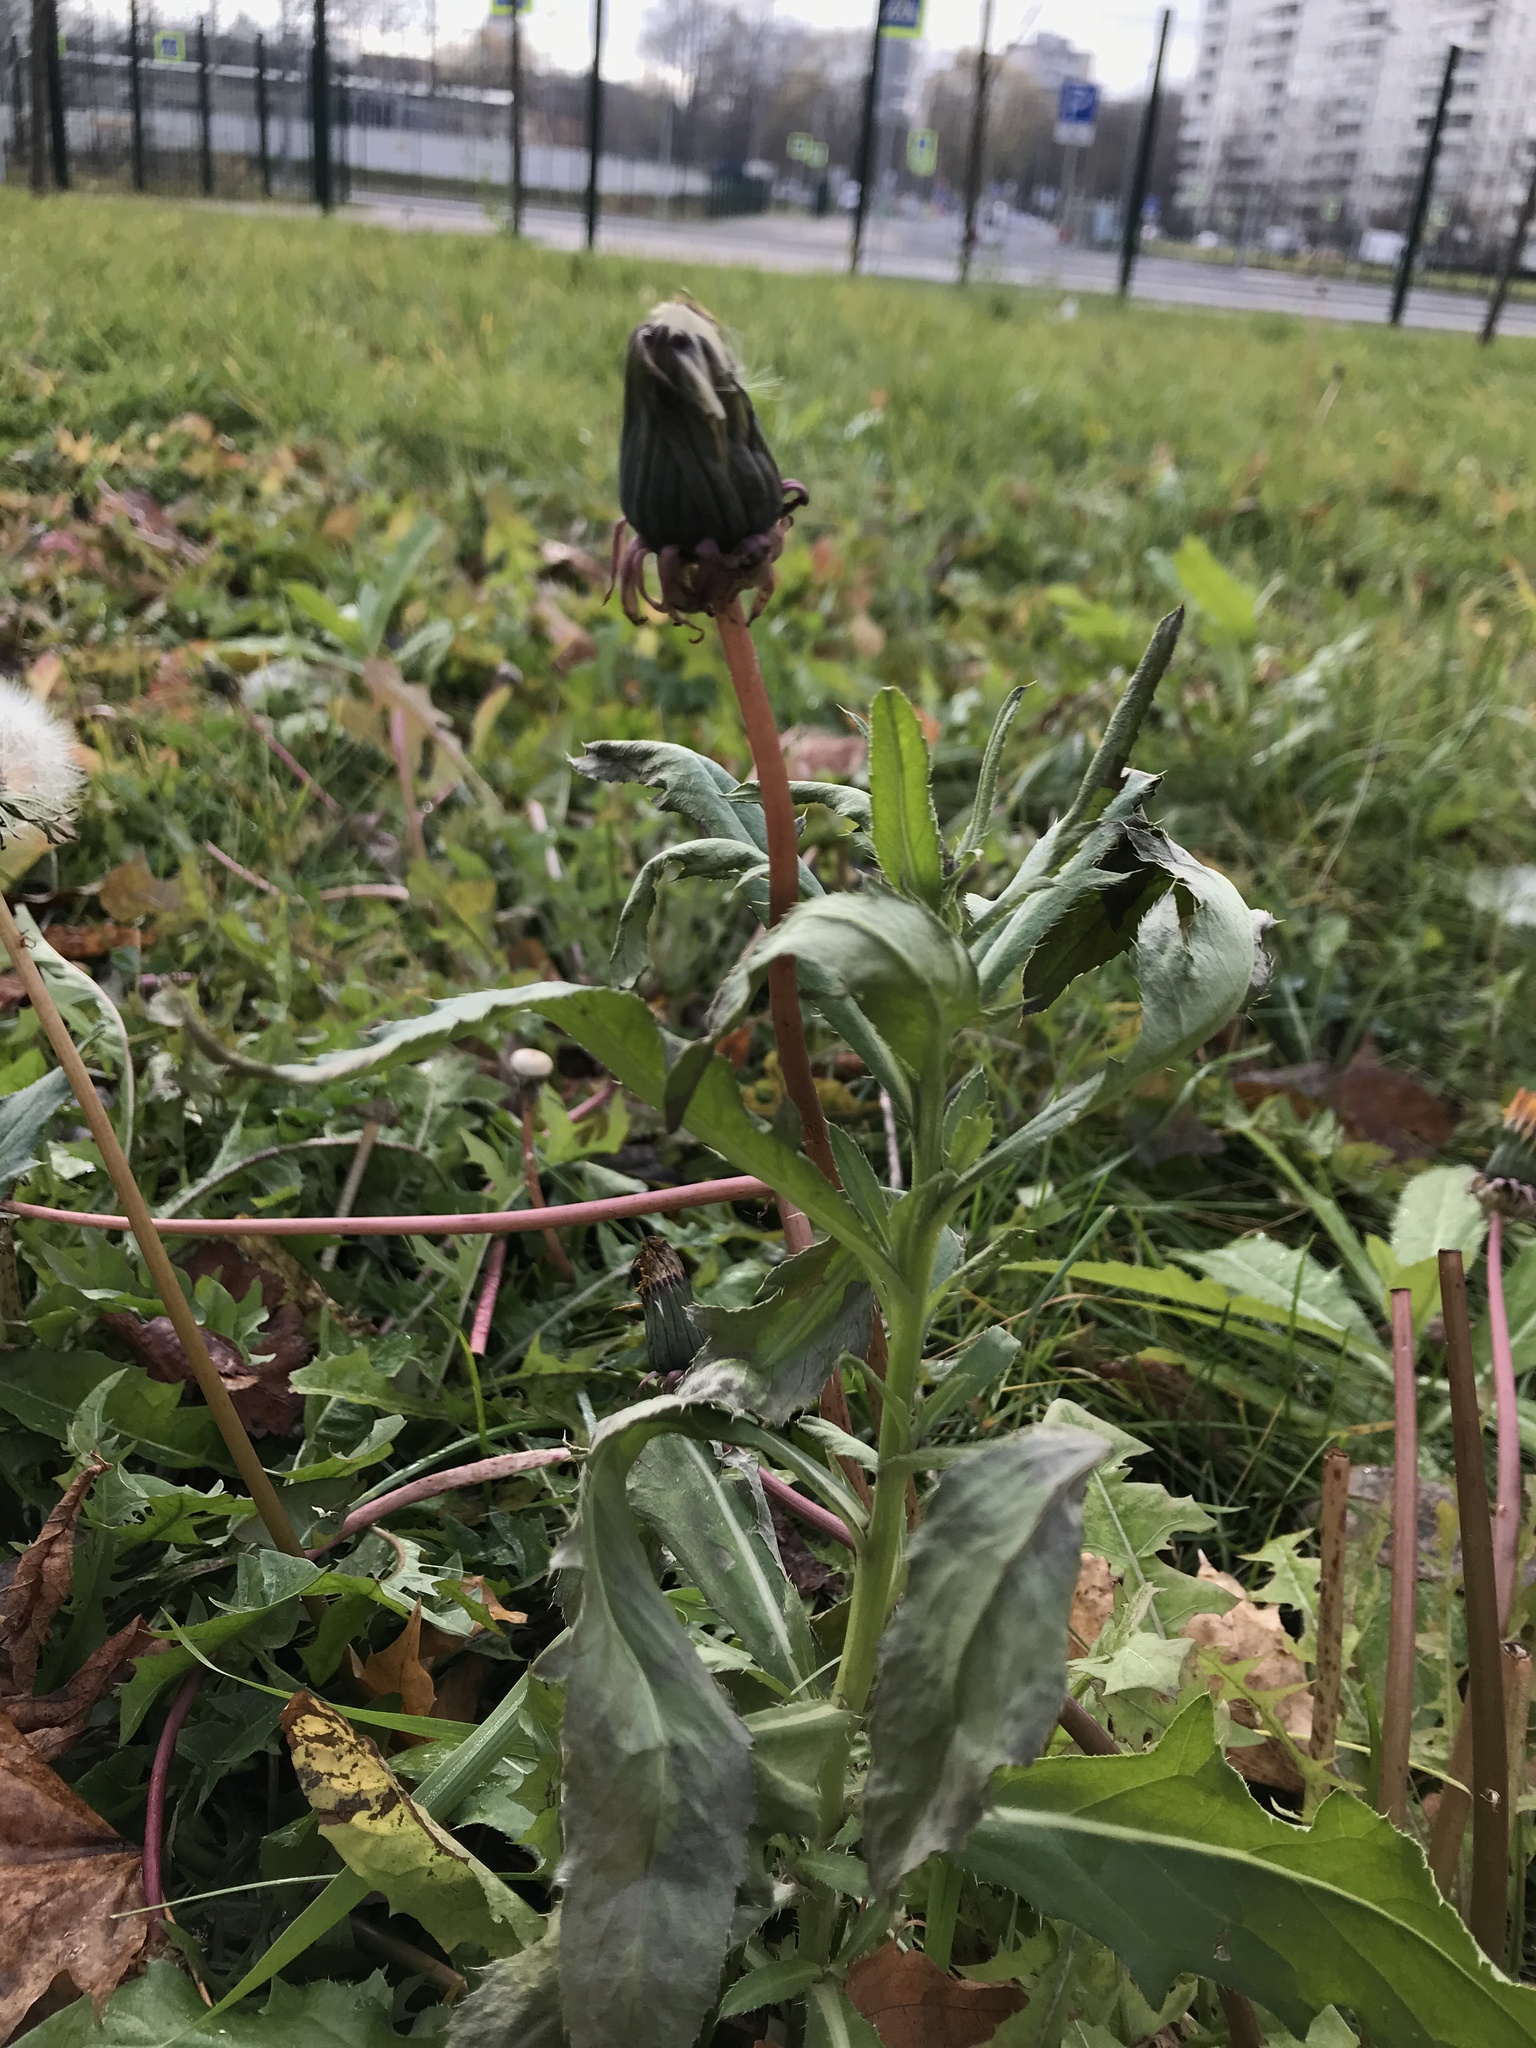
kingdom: Plantae
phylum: Tracheophyta
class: Magnoliopsida
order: Asterales
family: Asteraceae
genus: Taraxacum
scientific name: Taraxacum officinale
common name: Common dandelion
